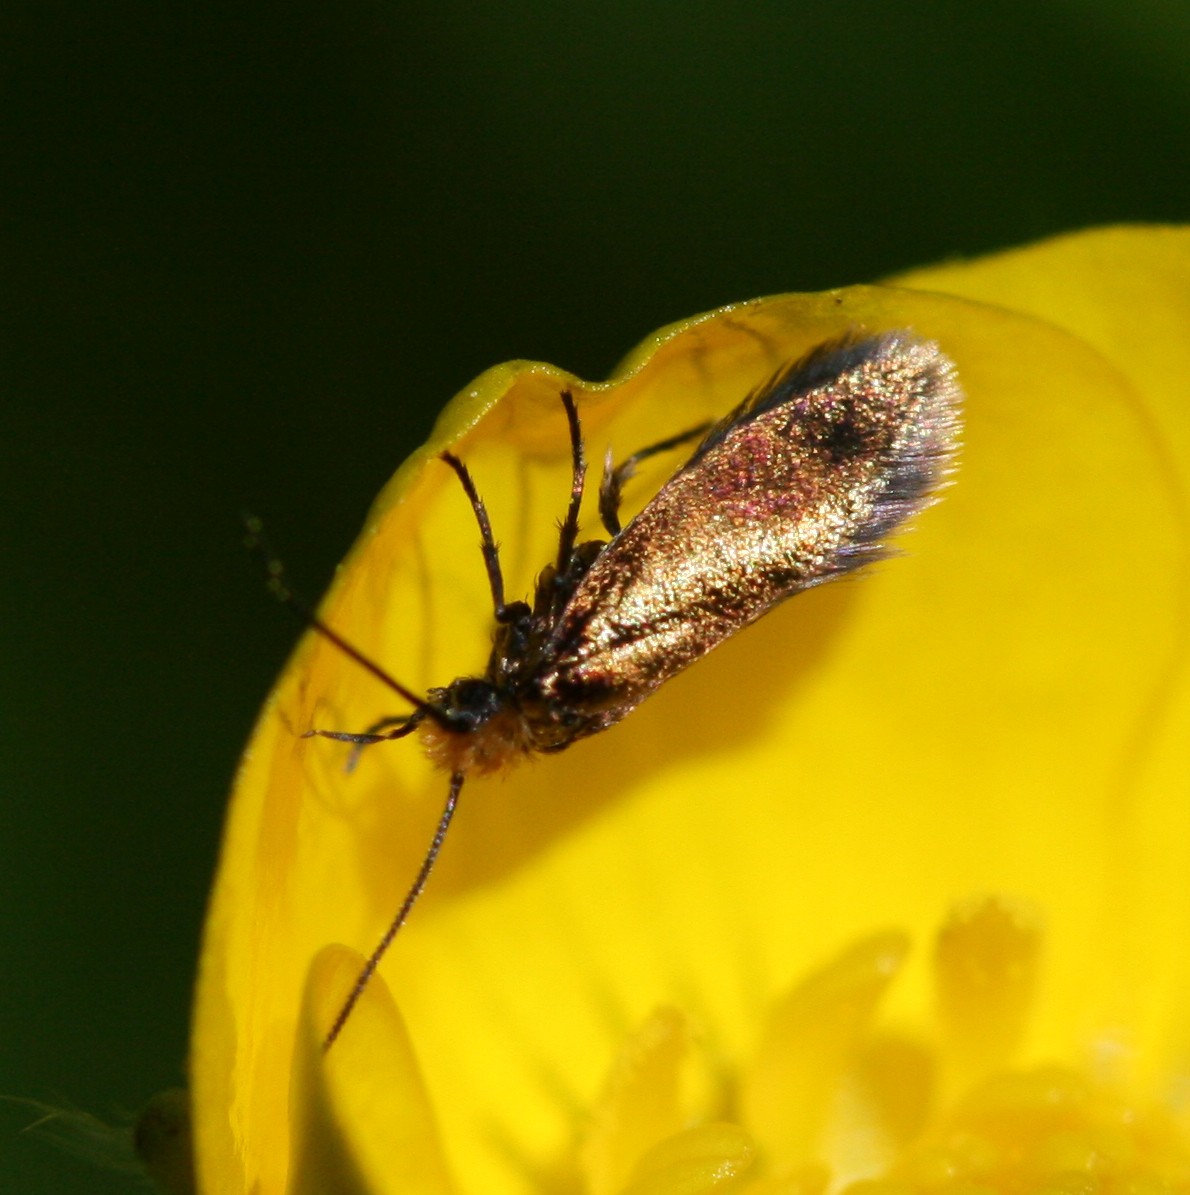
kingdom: Animalia
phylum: Arthropoda
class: Insecta
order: Lepidoptera
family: Micropterigidae
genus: Micropterix
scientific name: Micropterix calthella
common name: Plain gold
